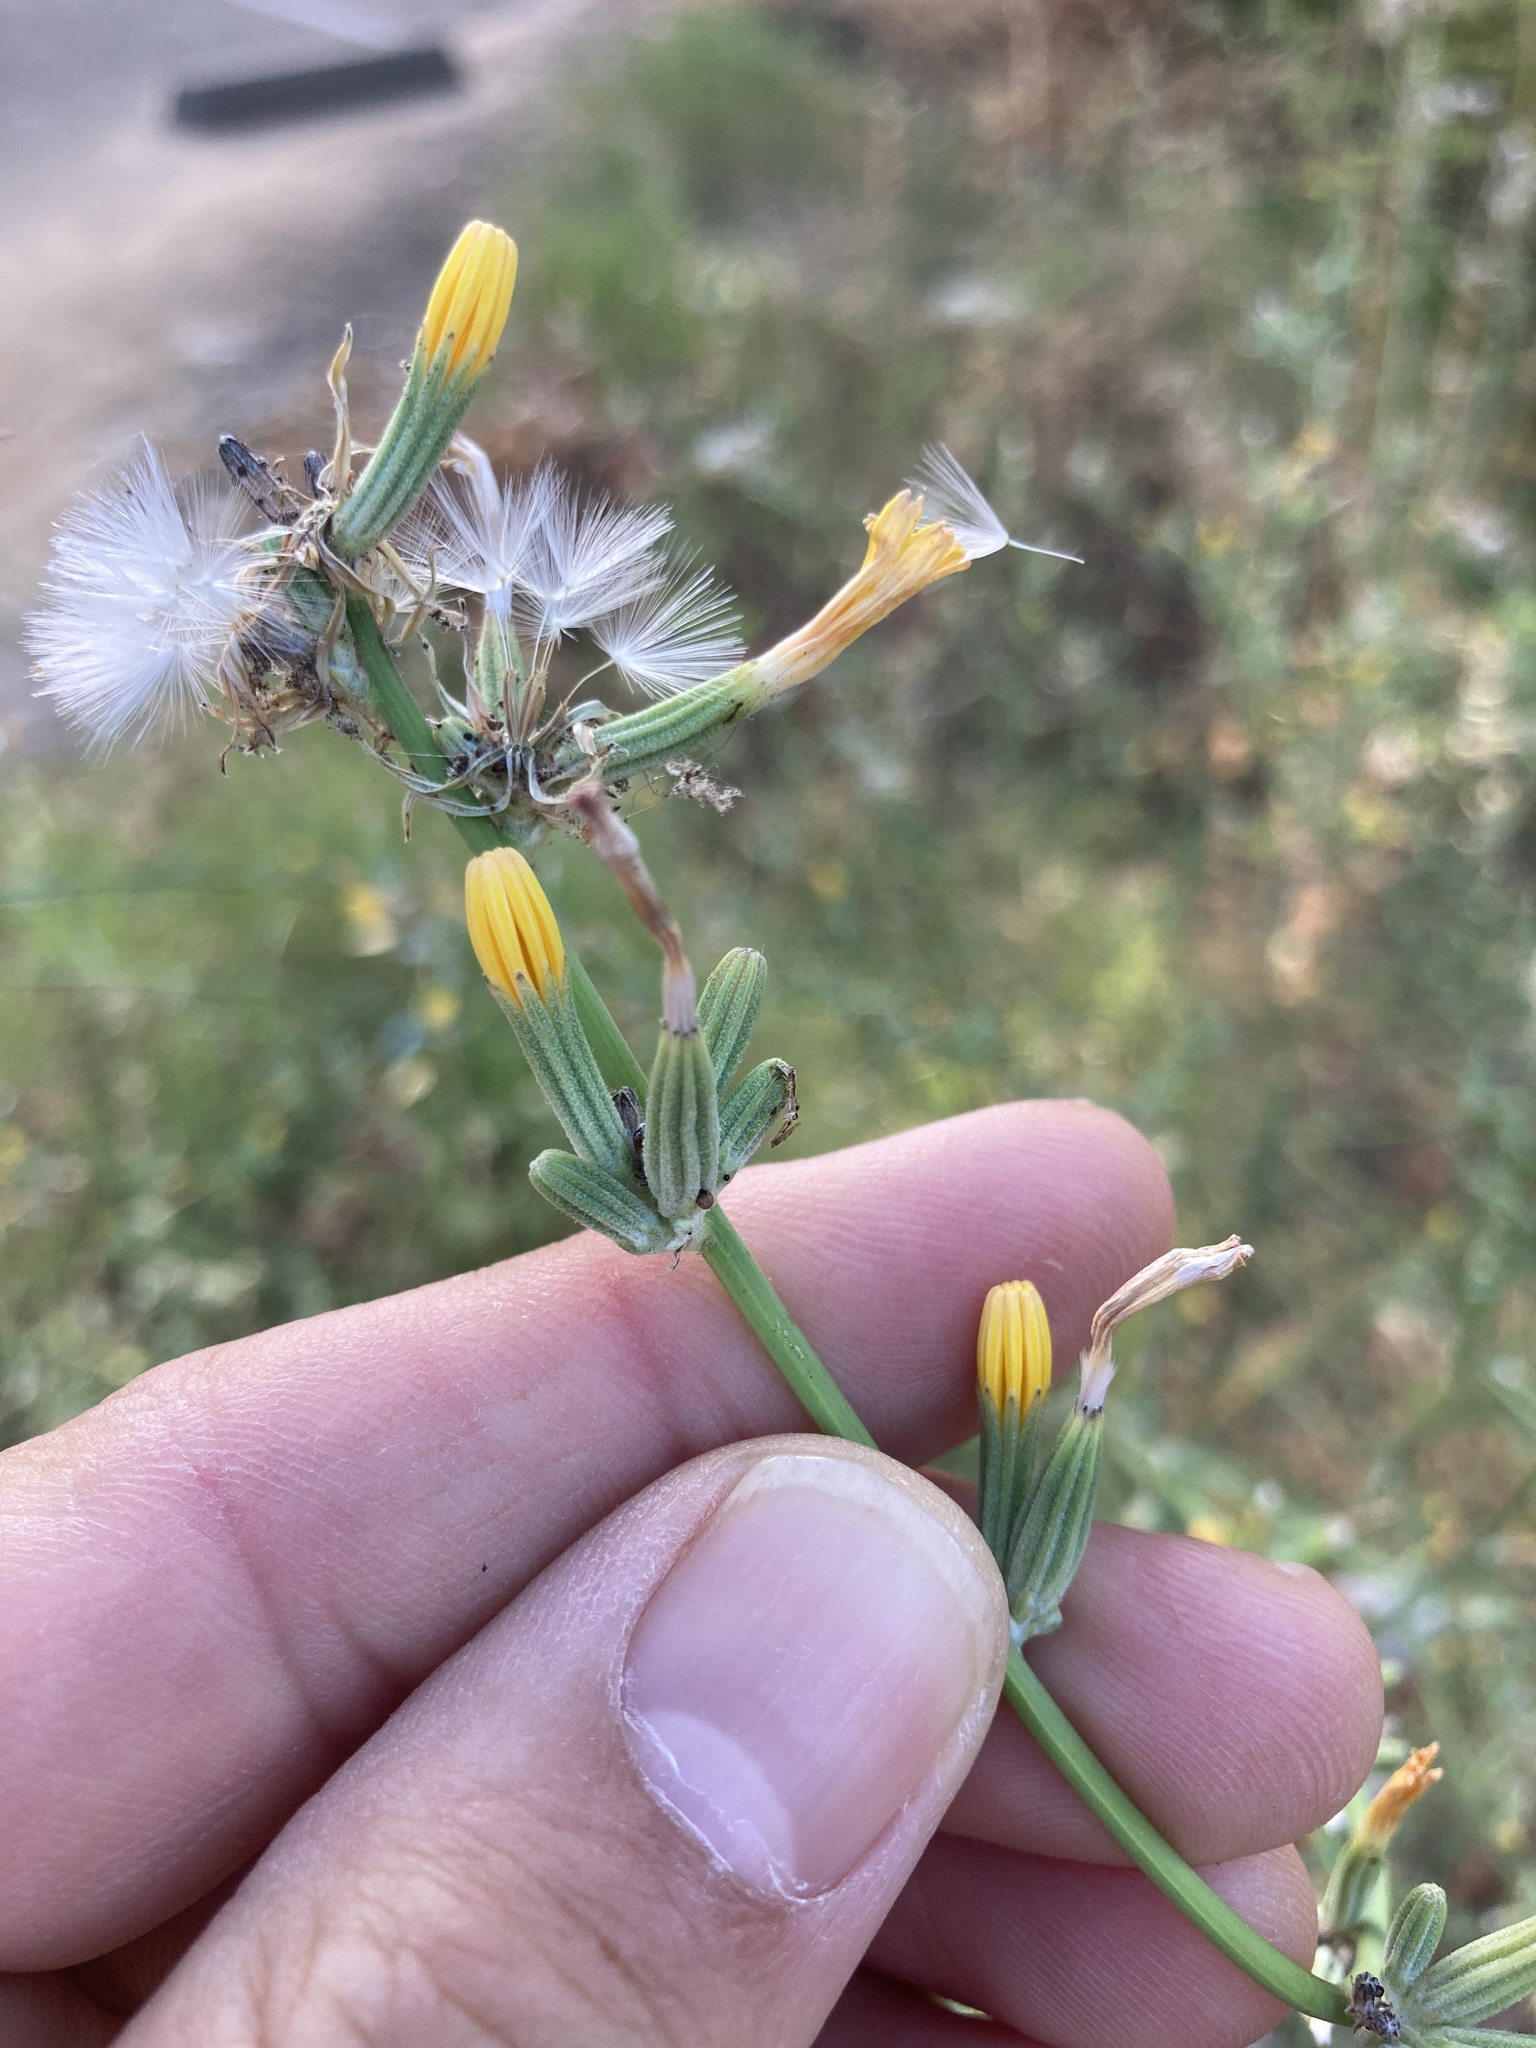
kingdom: Plantae
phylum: Tracheophyta
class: Magnoliopsida
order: Asterales
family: Asteraceae
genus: Chondrilla
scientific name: Chondrilla juncea
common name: Skeleton weed
